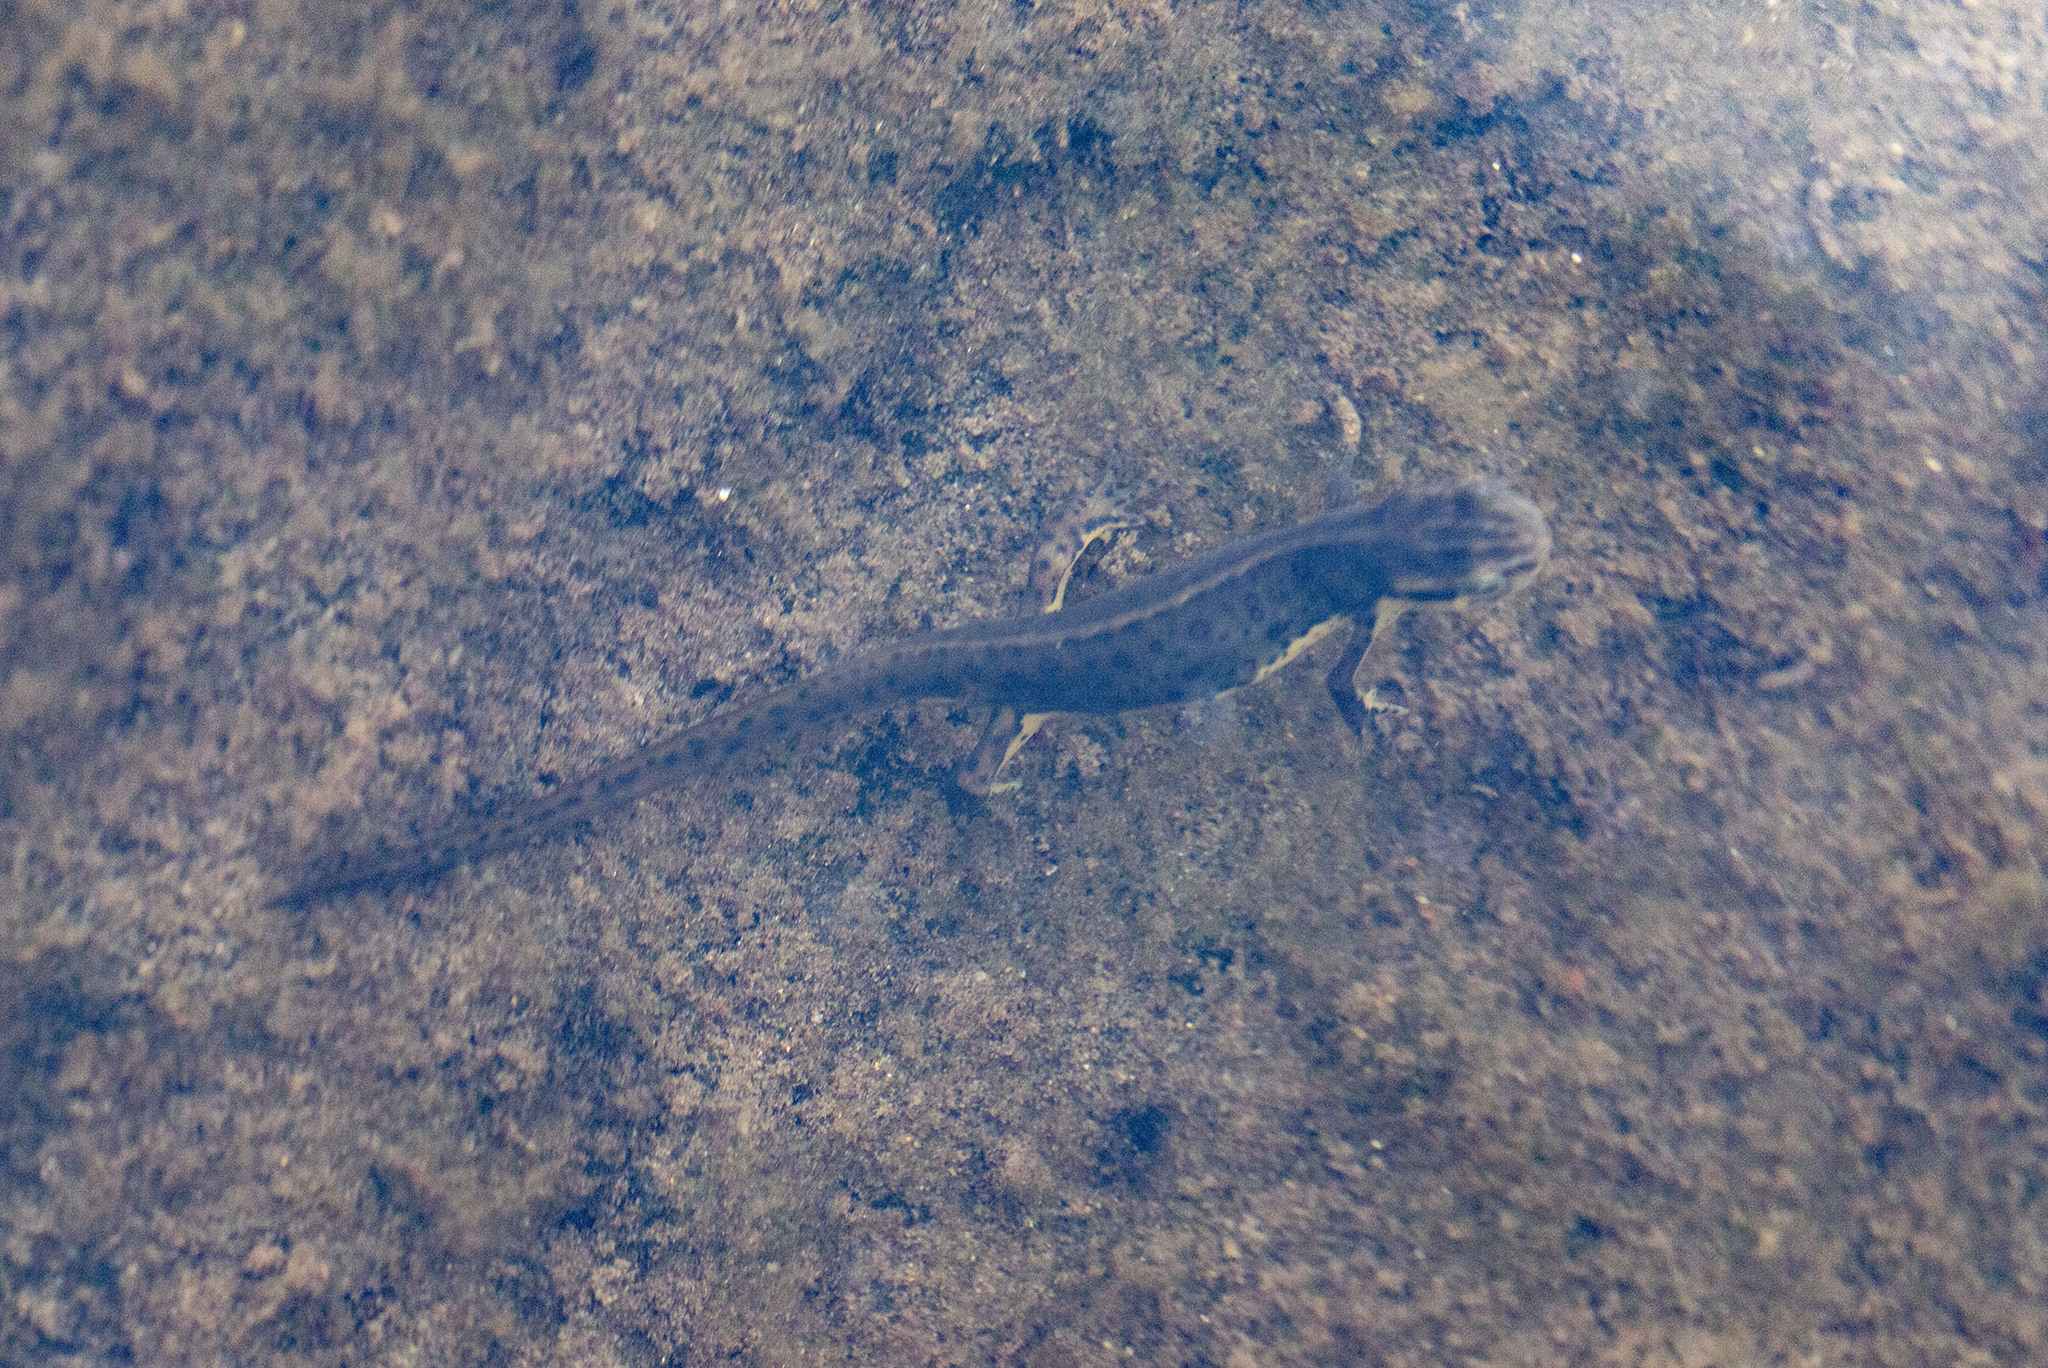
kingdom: Animalia
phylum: Chordata
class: Amphibia
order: Caudata
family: Salamandridae
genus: Notophthalmus
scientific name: Notophthalmus viridescens
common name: Eastern newt
